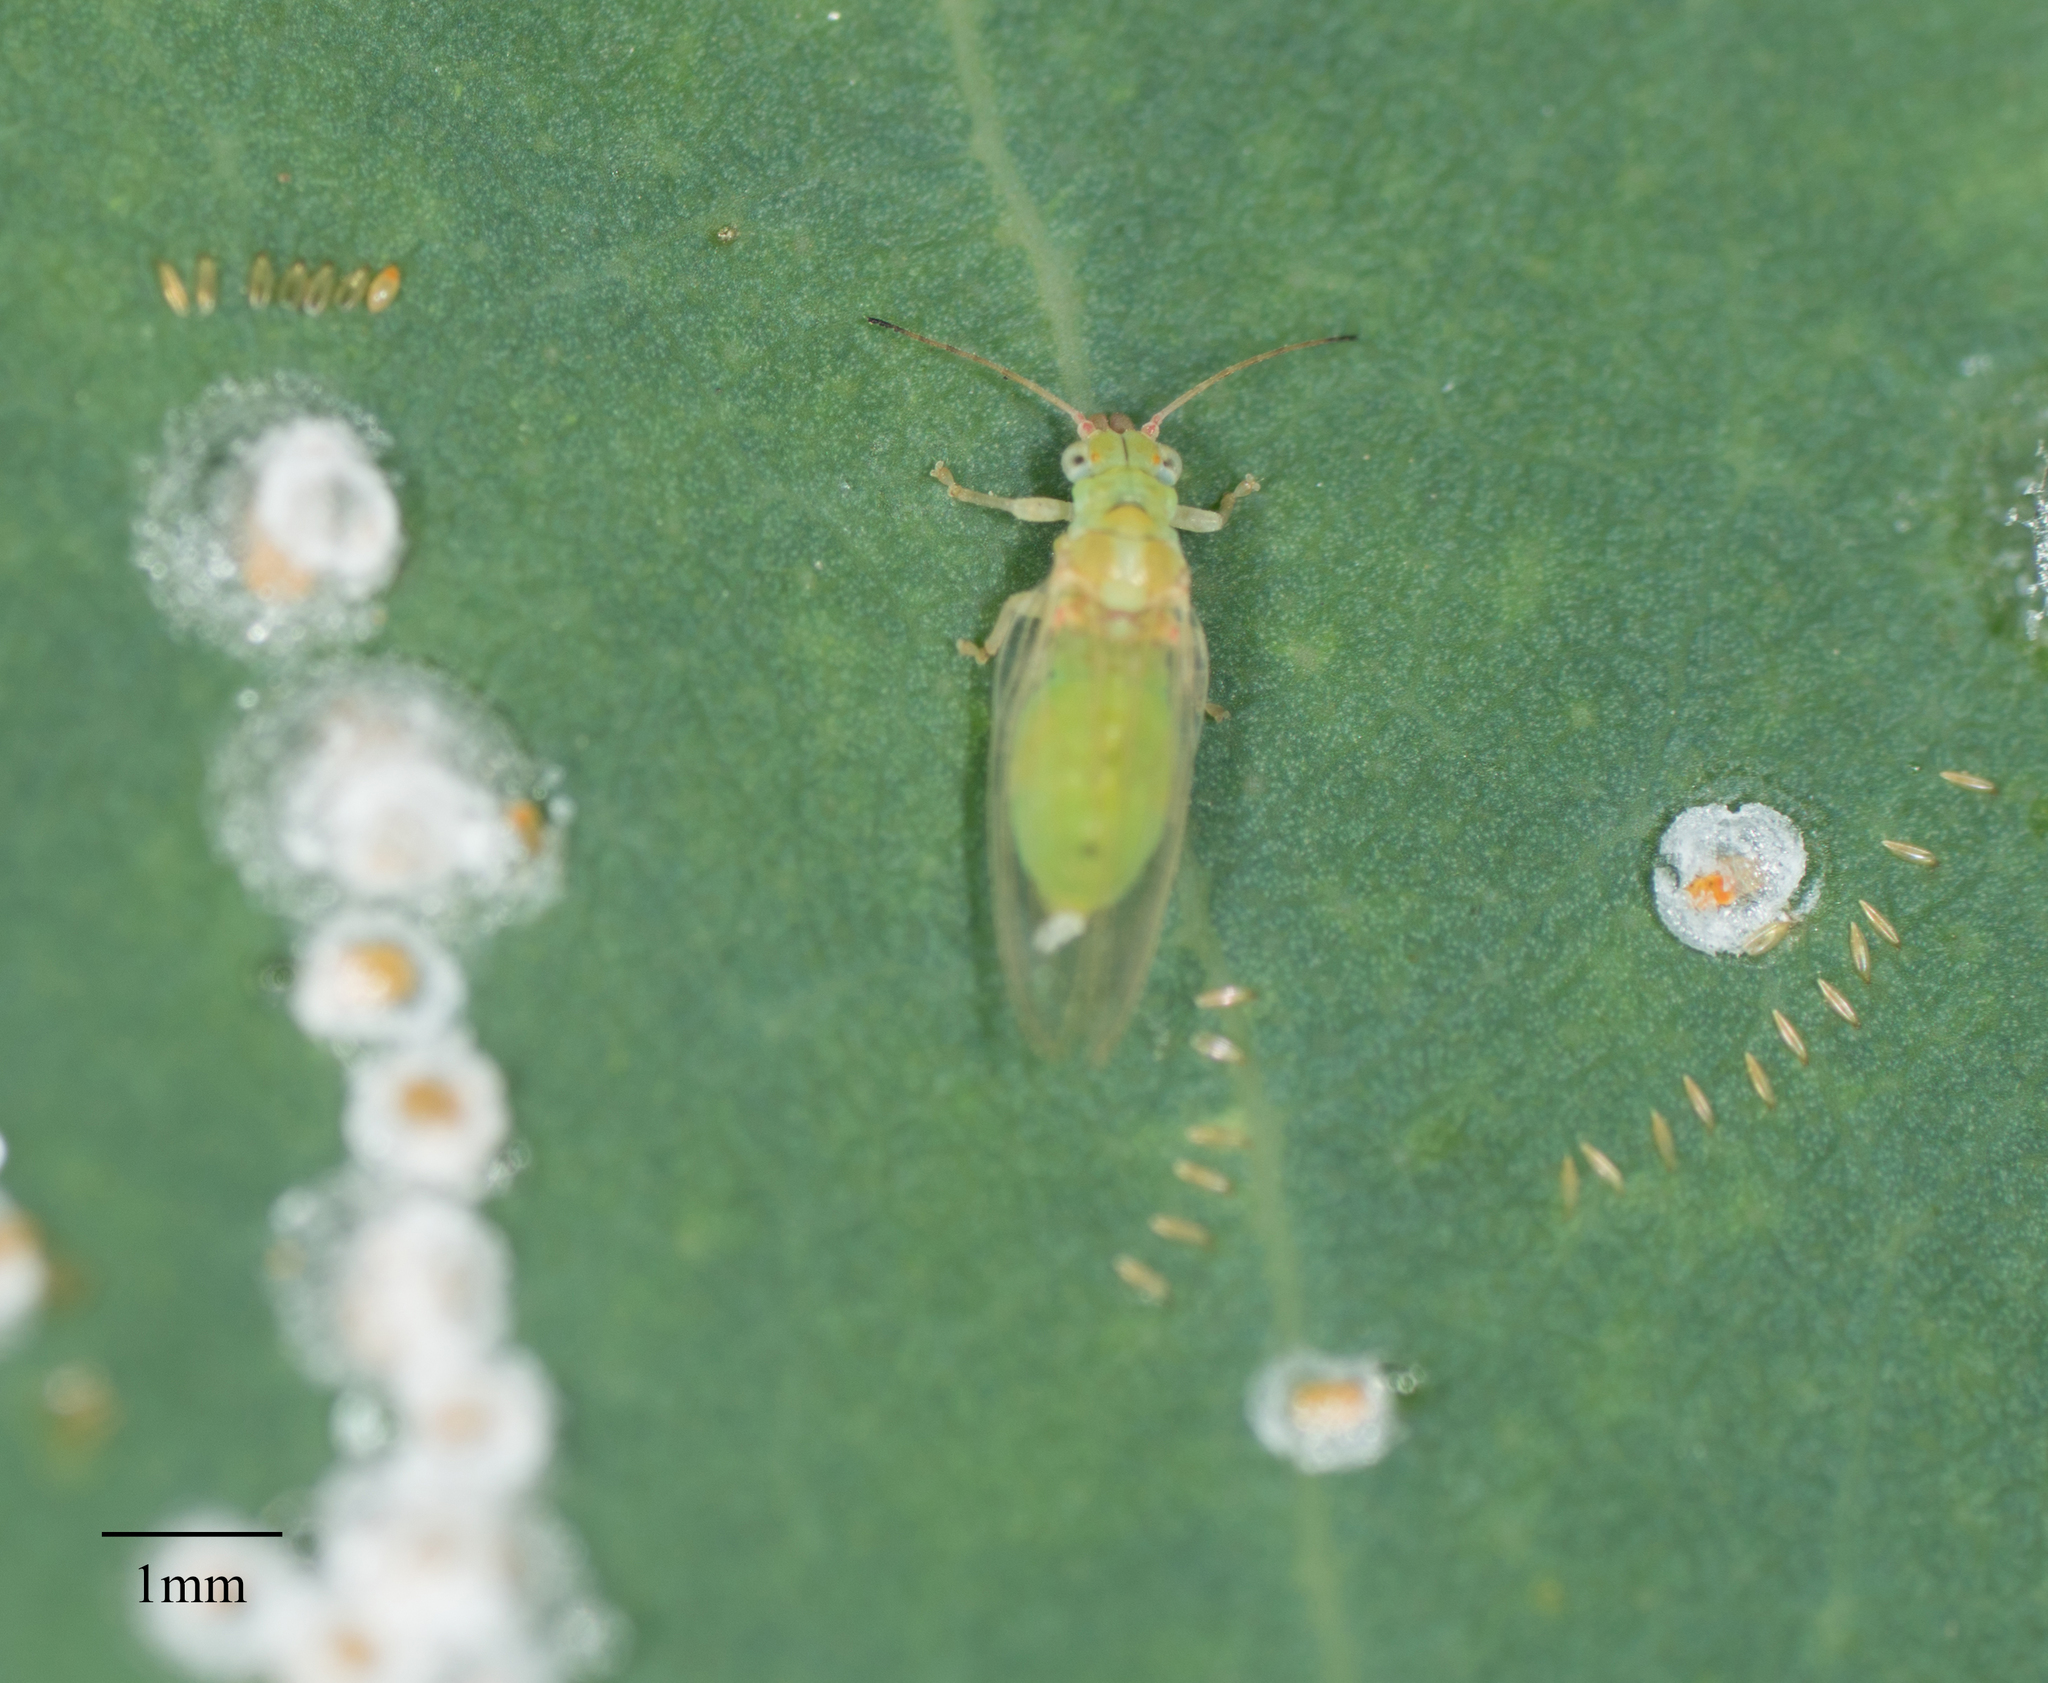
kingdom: Animalia
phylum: Arthropoda
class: Insecta
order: Hemiptera
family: Aphalaridae
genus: Glycaspis
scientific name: Glycaspis brimblecombei
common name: Red gum lerp psyllid
